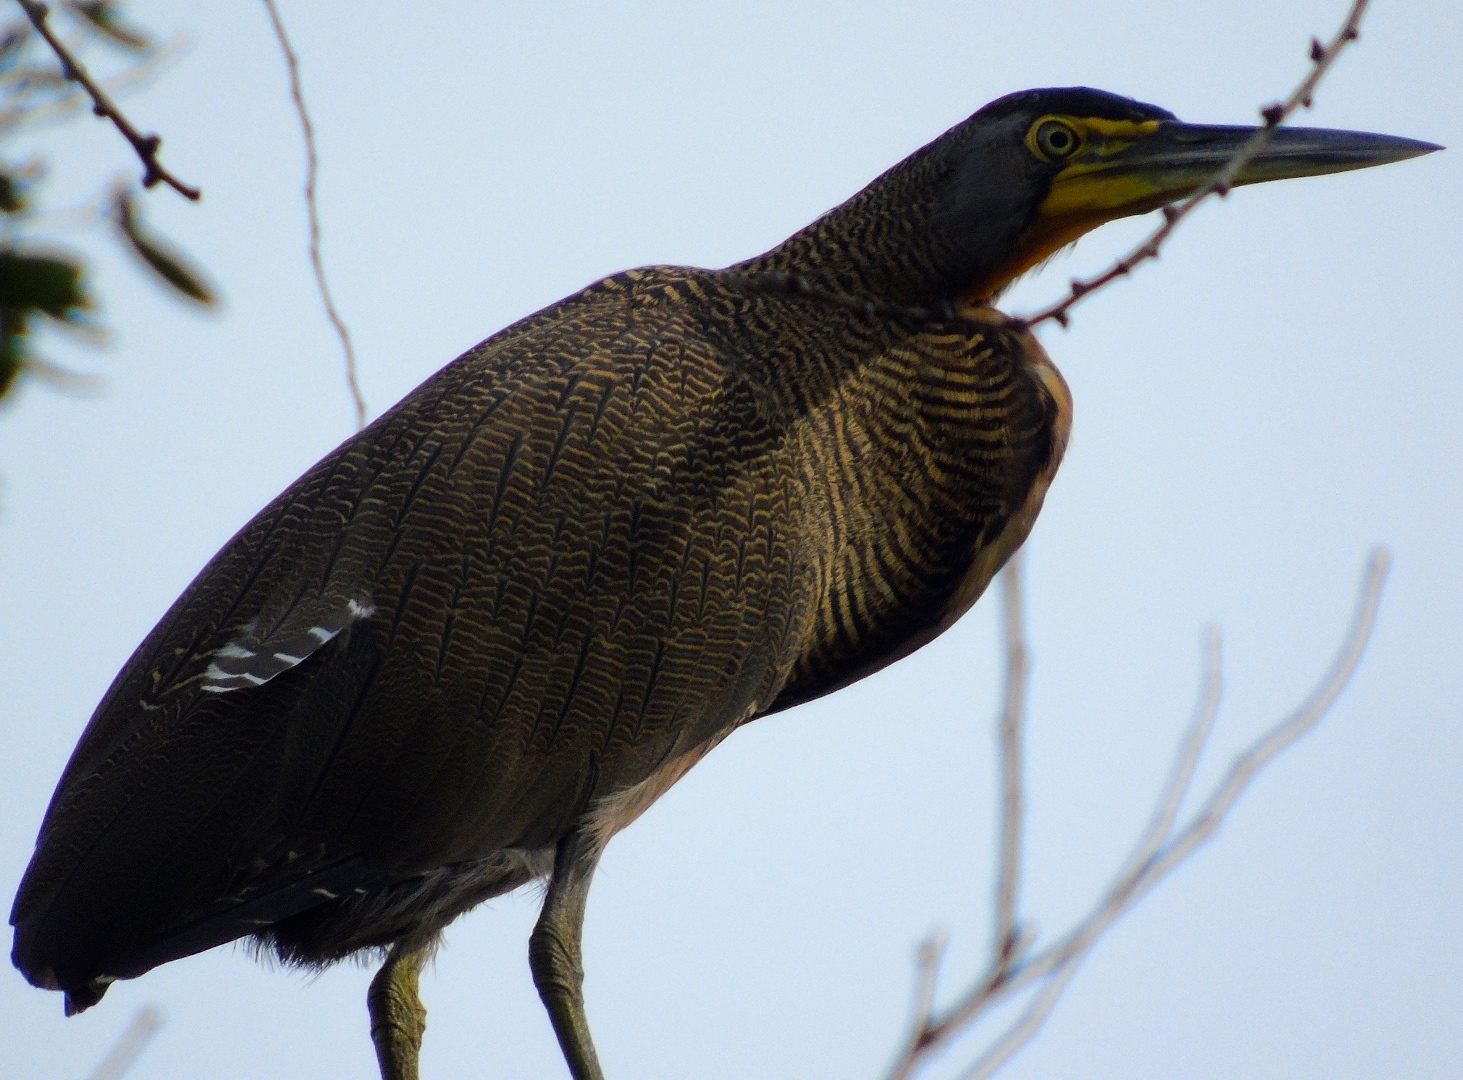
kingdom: Animalia
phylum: Chordata
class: Aves
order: Pelecaniformes
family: Ardeidae
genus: Tigrisoma
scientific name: Tigrisoma mexicanum
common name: Bare-throated tiger-heron
